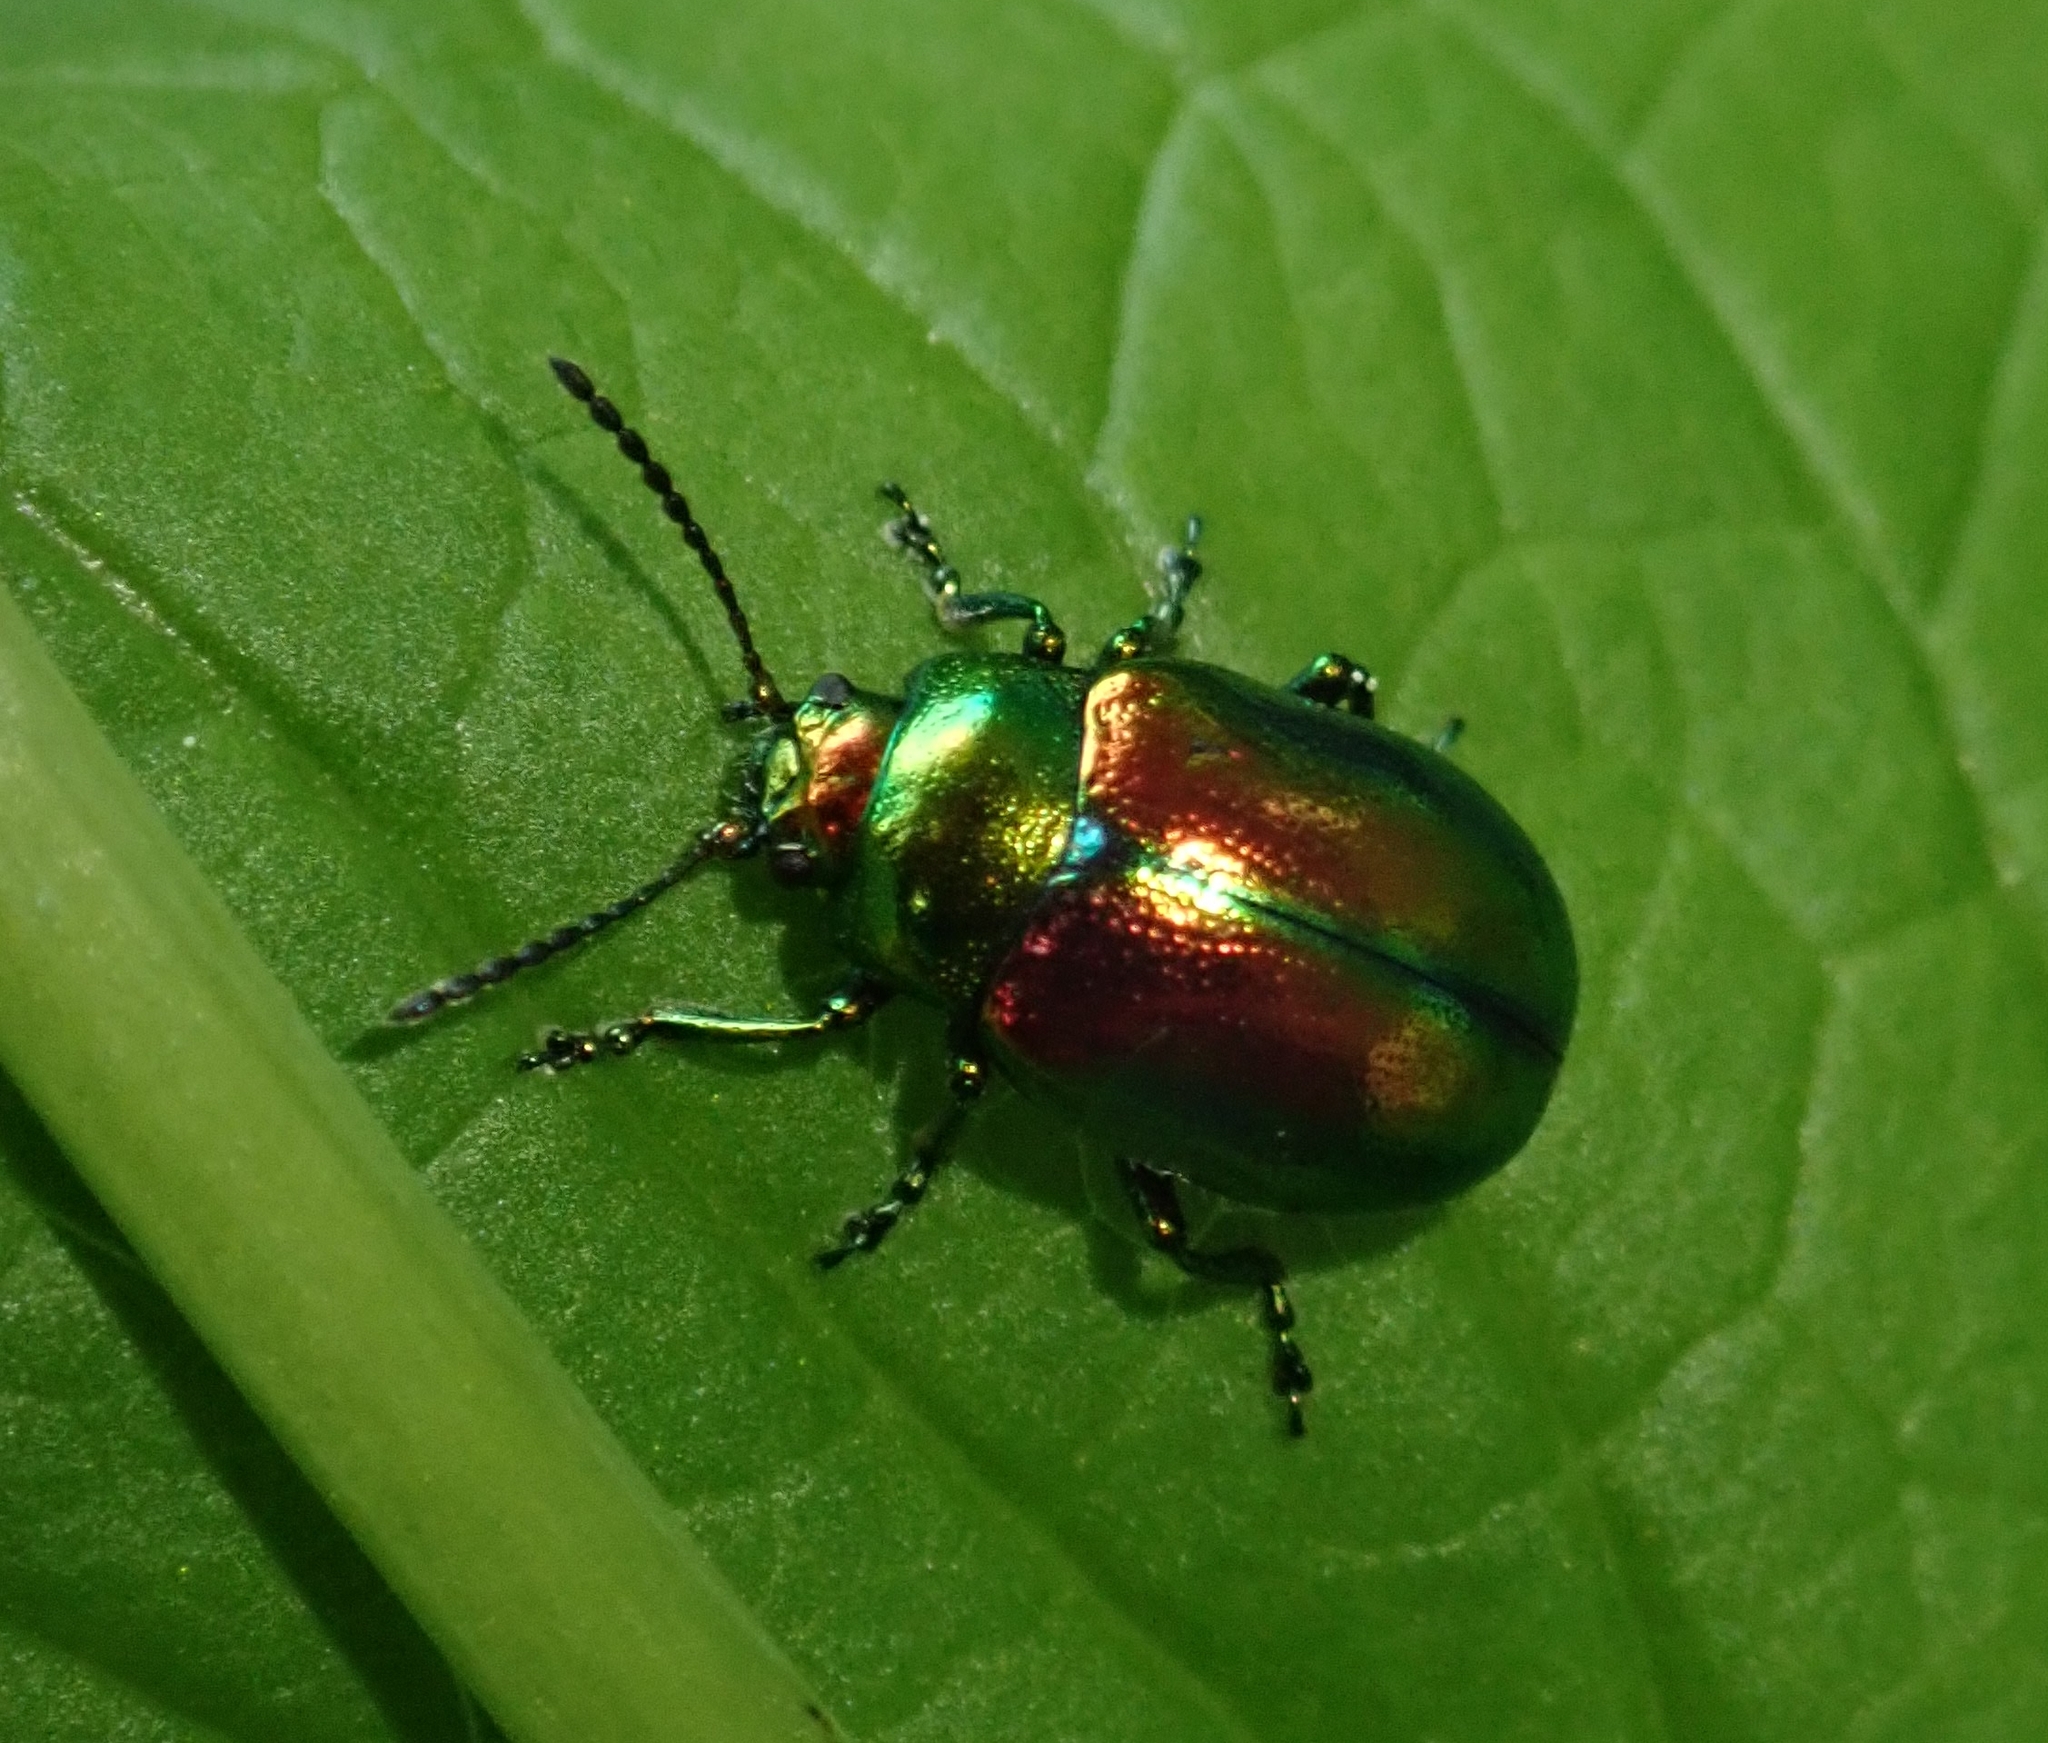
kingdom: Animalia
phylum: Arthropoda
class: Insecta
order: Coleoptera
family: Chrysomelidae
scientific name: Chrysomelidae
